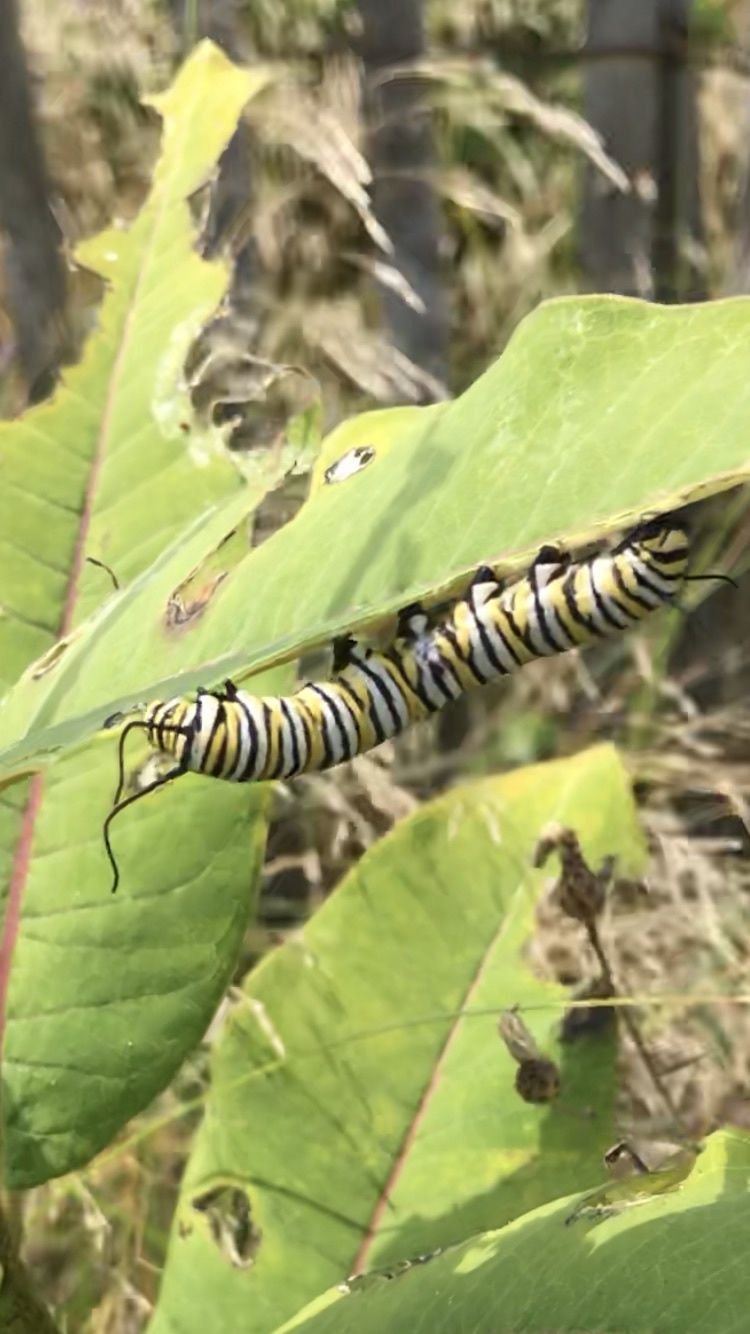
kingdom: Animalia
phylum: Arthropoda
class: Insecta
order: Lepidoptera
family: Nymphalidae
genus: Danaus
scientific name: Danaus plexippus
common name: Monarch
